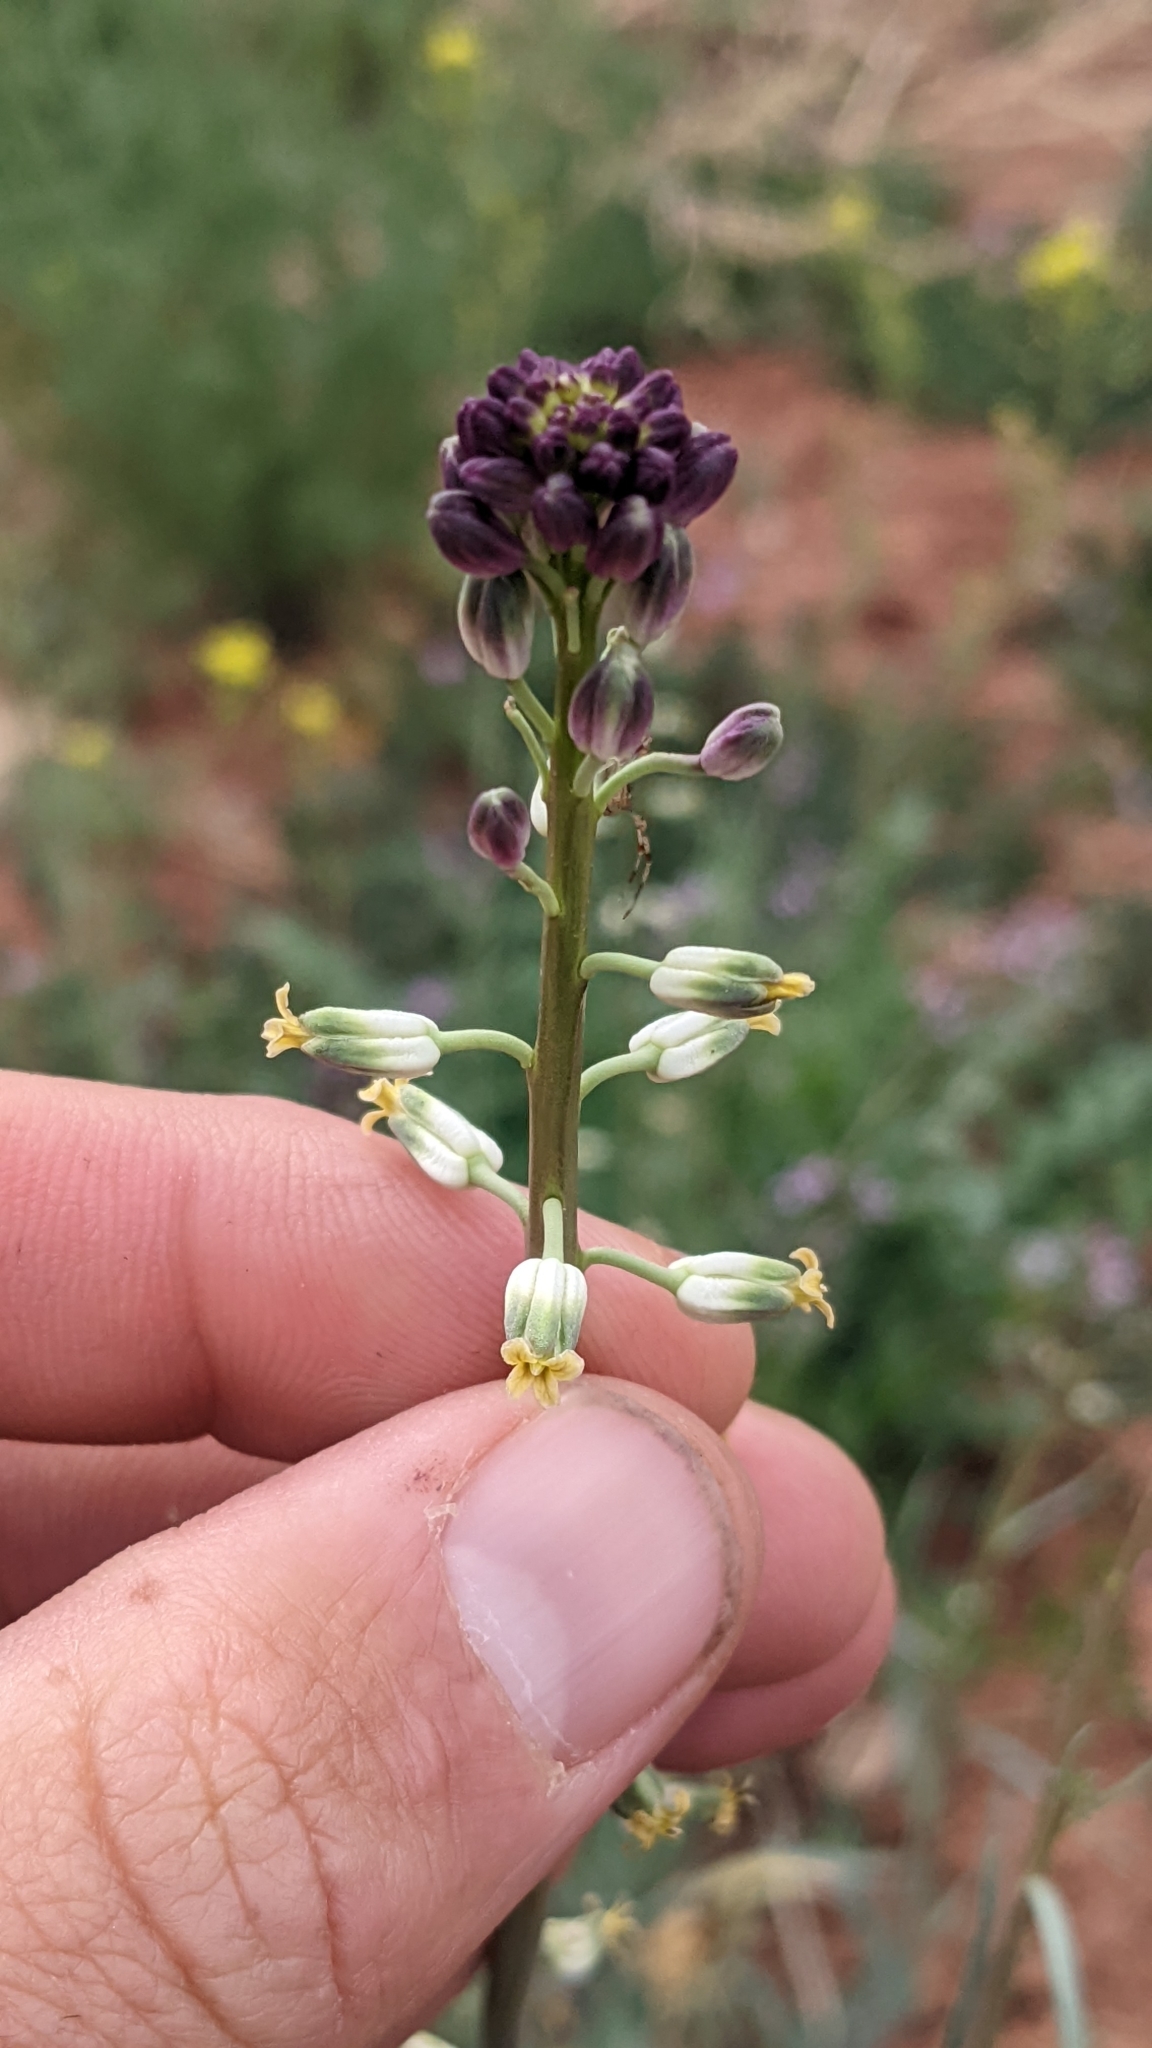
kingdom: Plantae
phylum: Tracheophyta
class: Magnoliopsida
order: Brassicales
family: Brassicaceae
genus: Streptanthus
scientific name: Streptanthus longirostris
